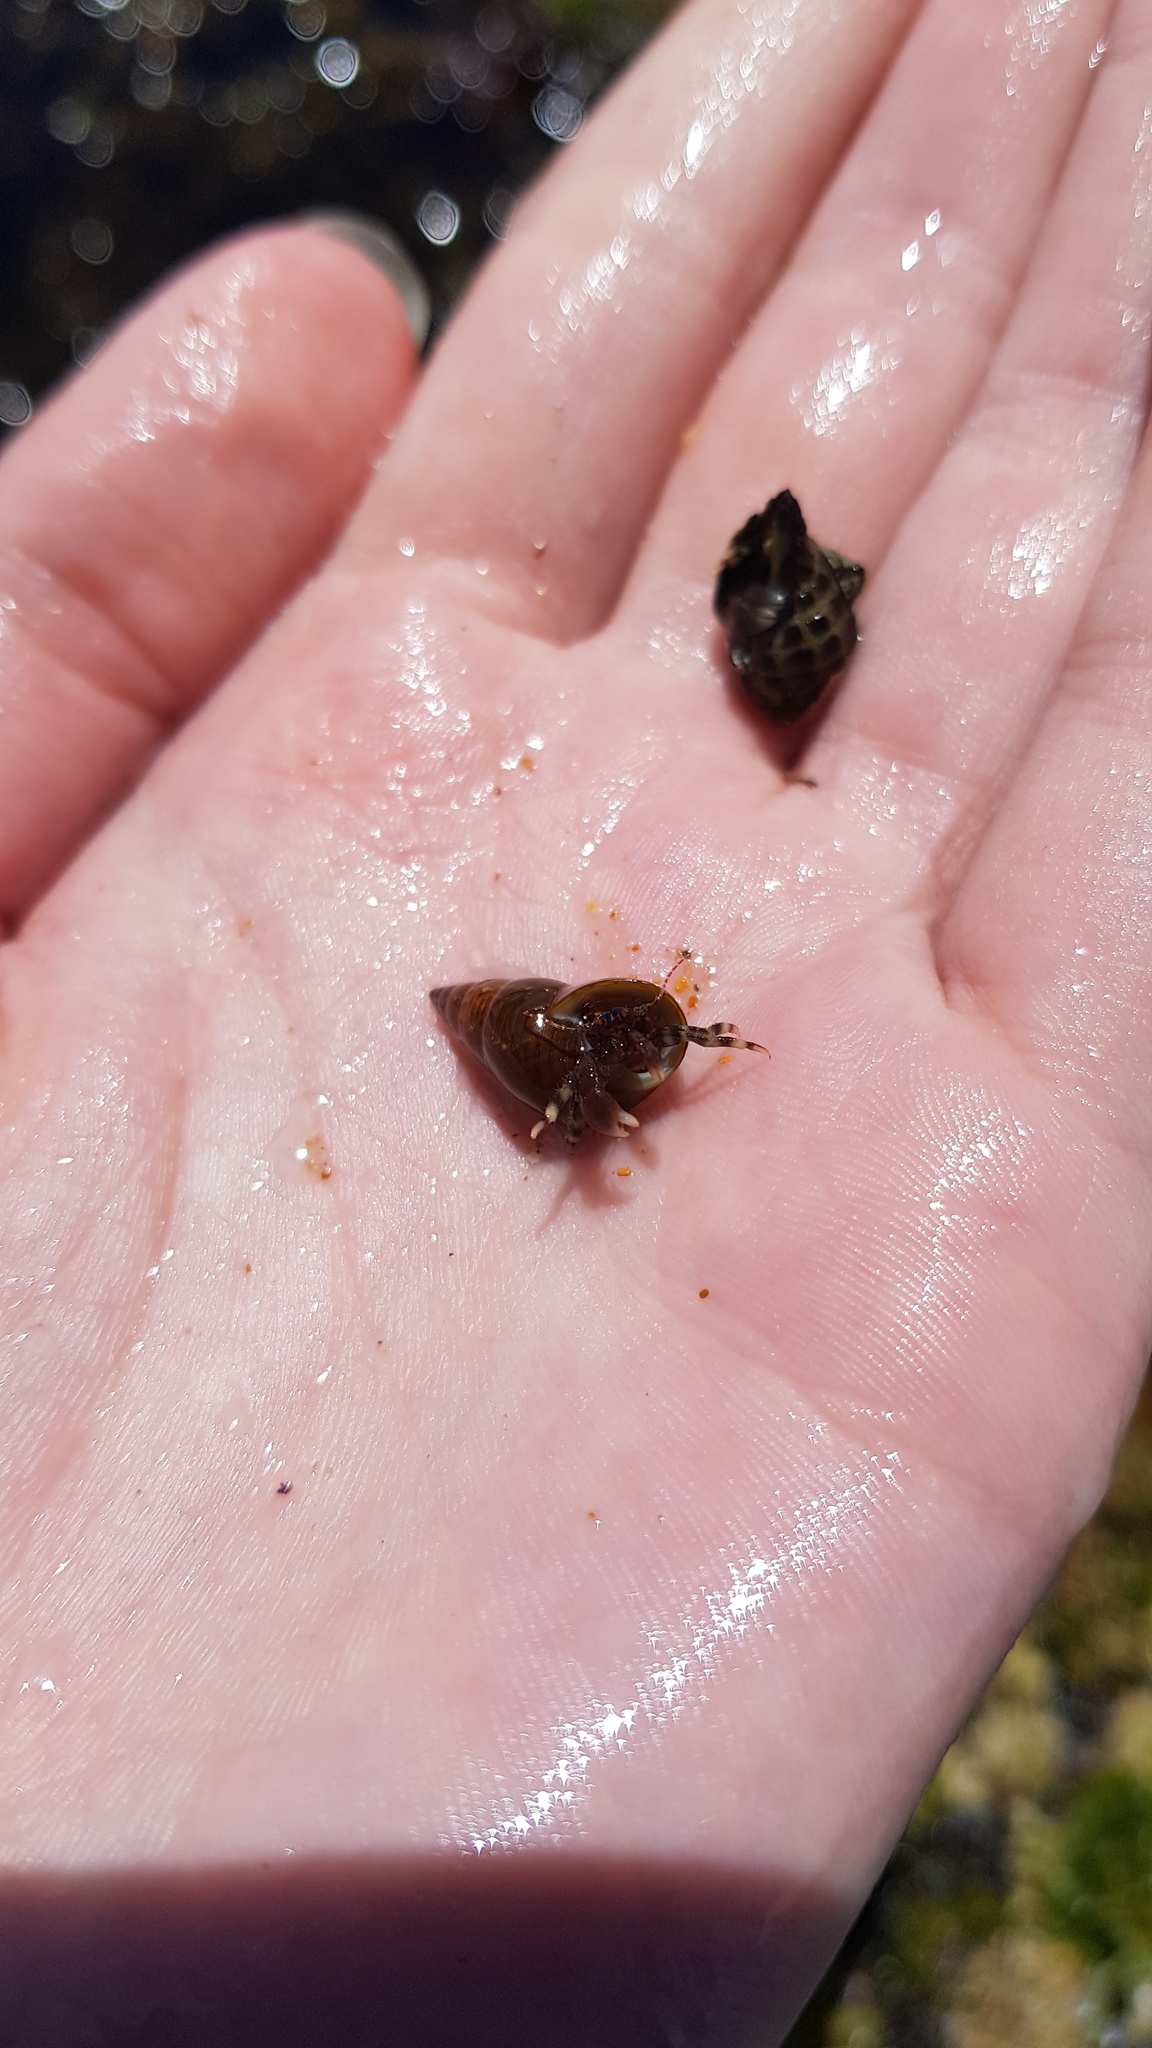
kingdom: Animalia
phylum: Arthropoda
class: Malacostraca
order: Decapoda
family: Paguridae
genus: Pagurixus
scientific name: Pagurixus jerviensis
